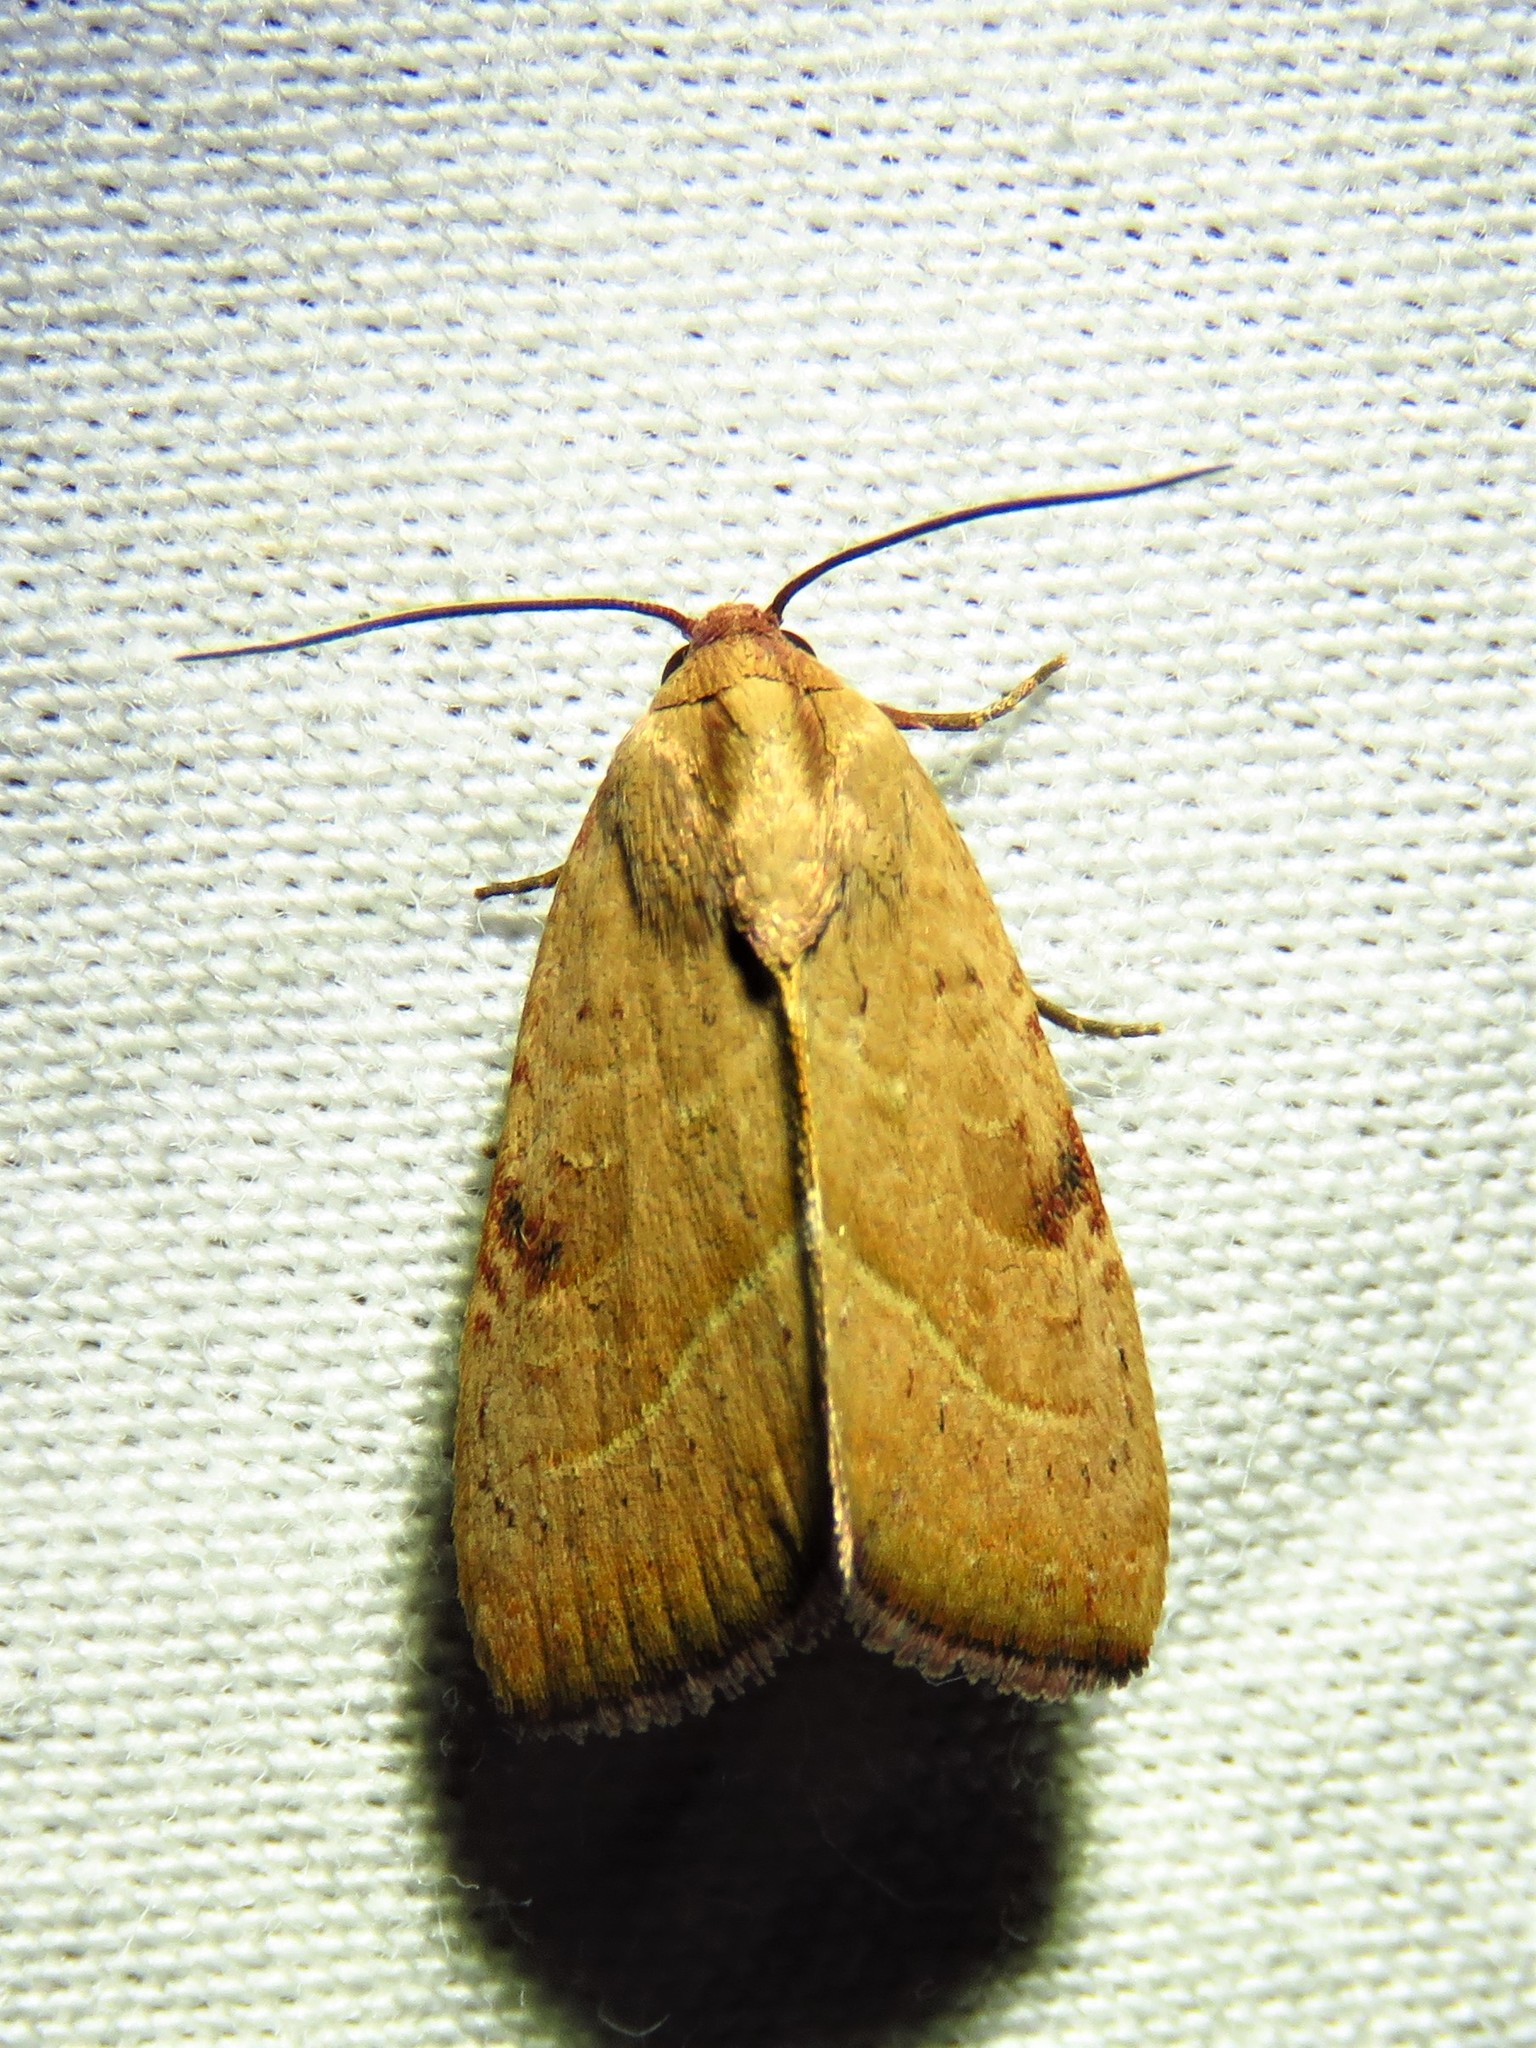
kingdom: Animalia
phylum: Arthropoda
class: Insecta
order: Lepidoptera
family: Noctuidae
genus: Galgula
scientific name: Galgula partita
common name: Wedgeling
